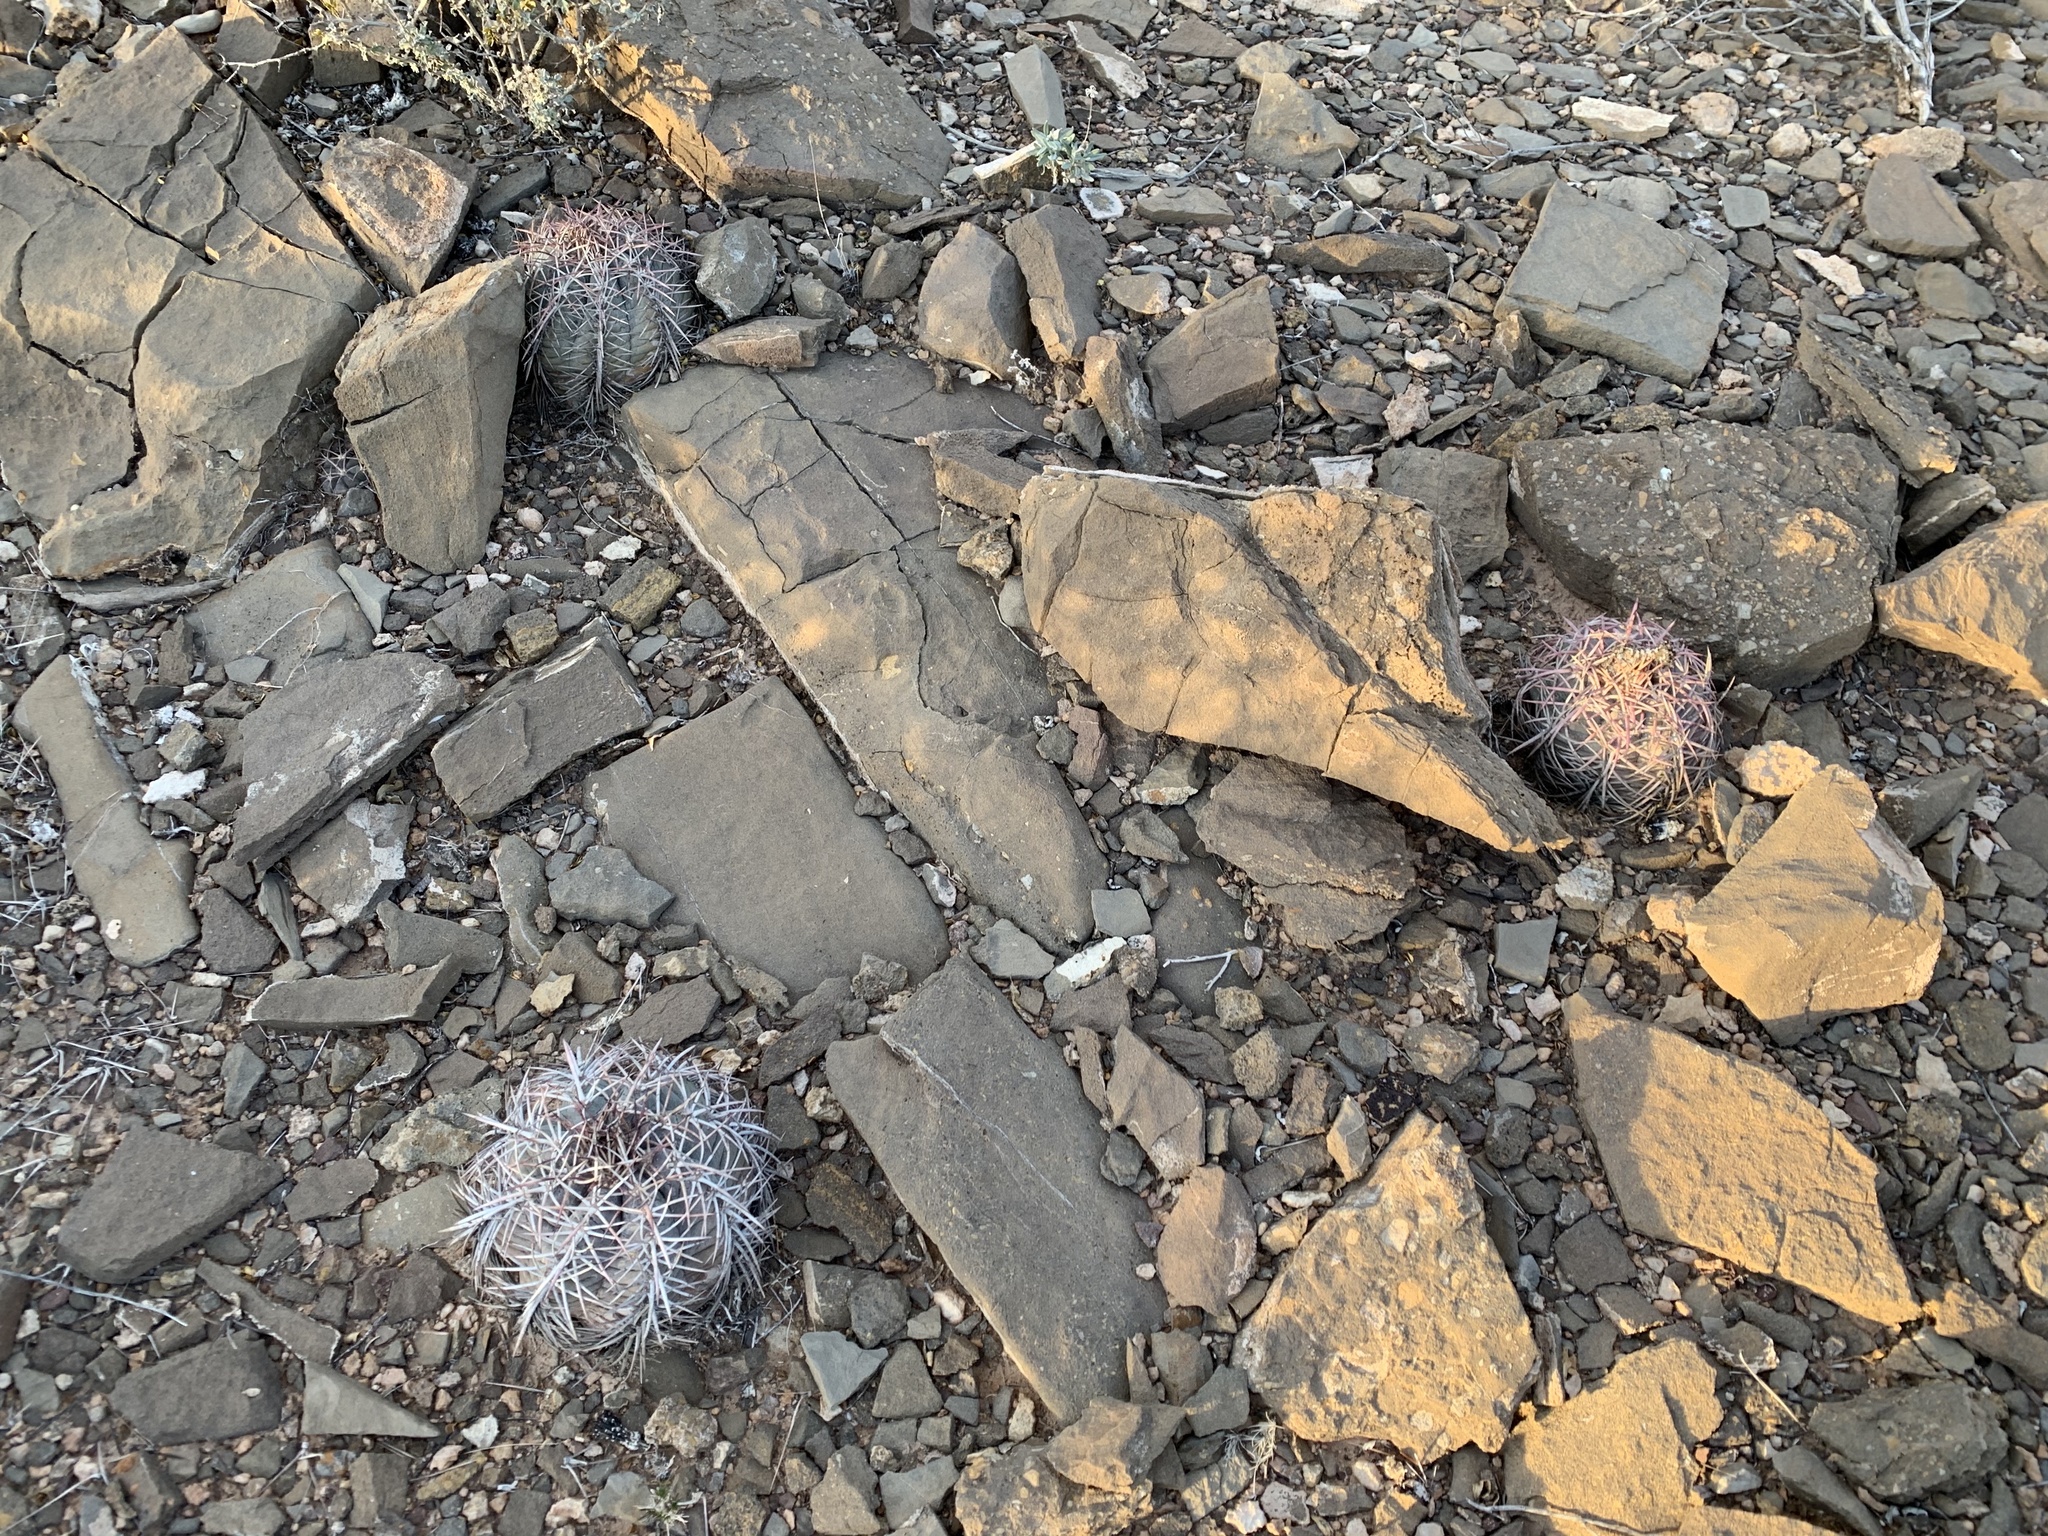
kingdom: Plantae
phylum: Tracheophyta
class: Magnoliopsida
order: Caryophyllales
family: Cactaceae
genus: Echinocactus
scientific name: Echinocactus horizonthalonius
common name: Devilshead
